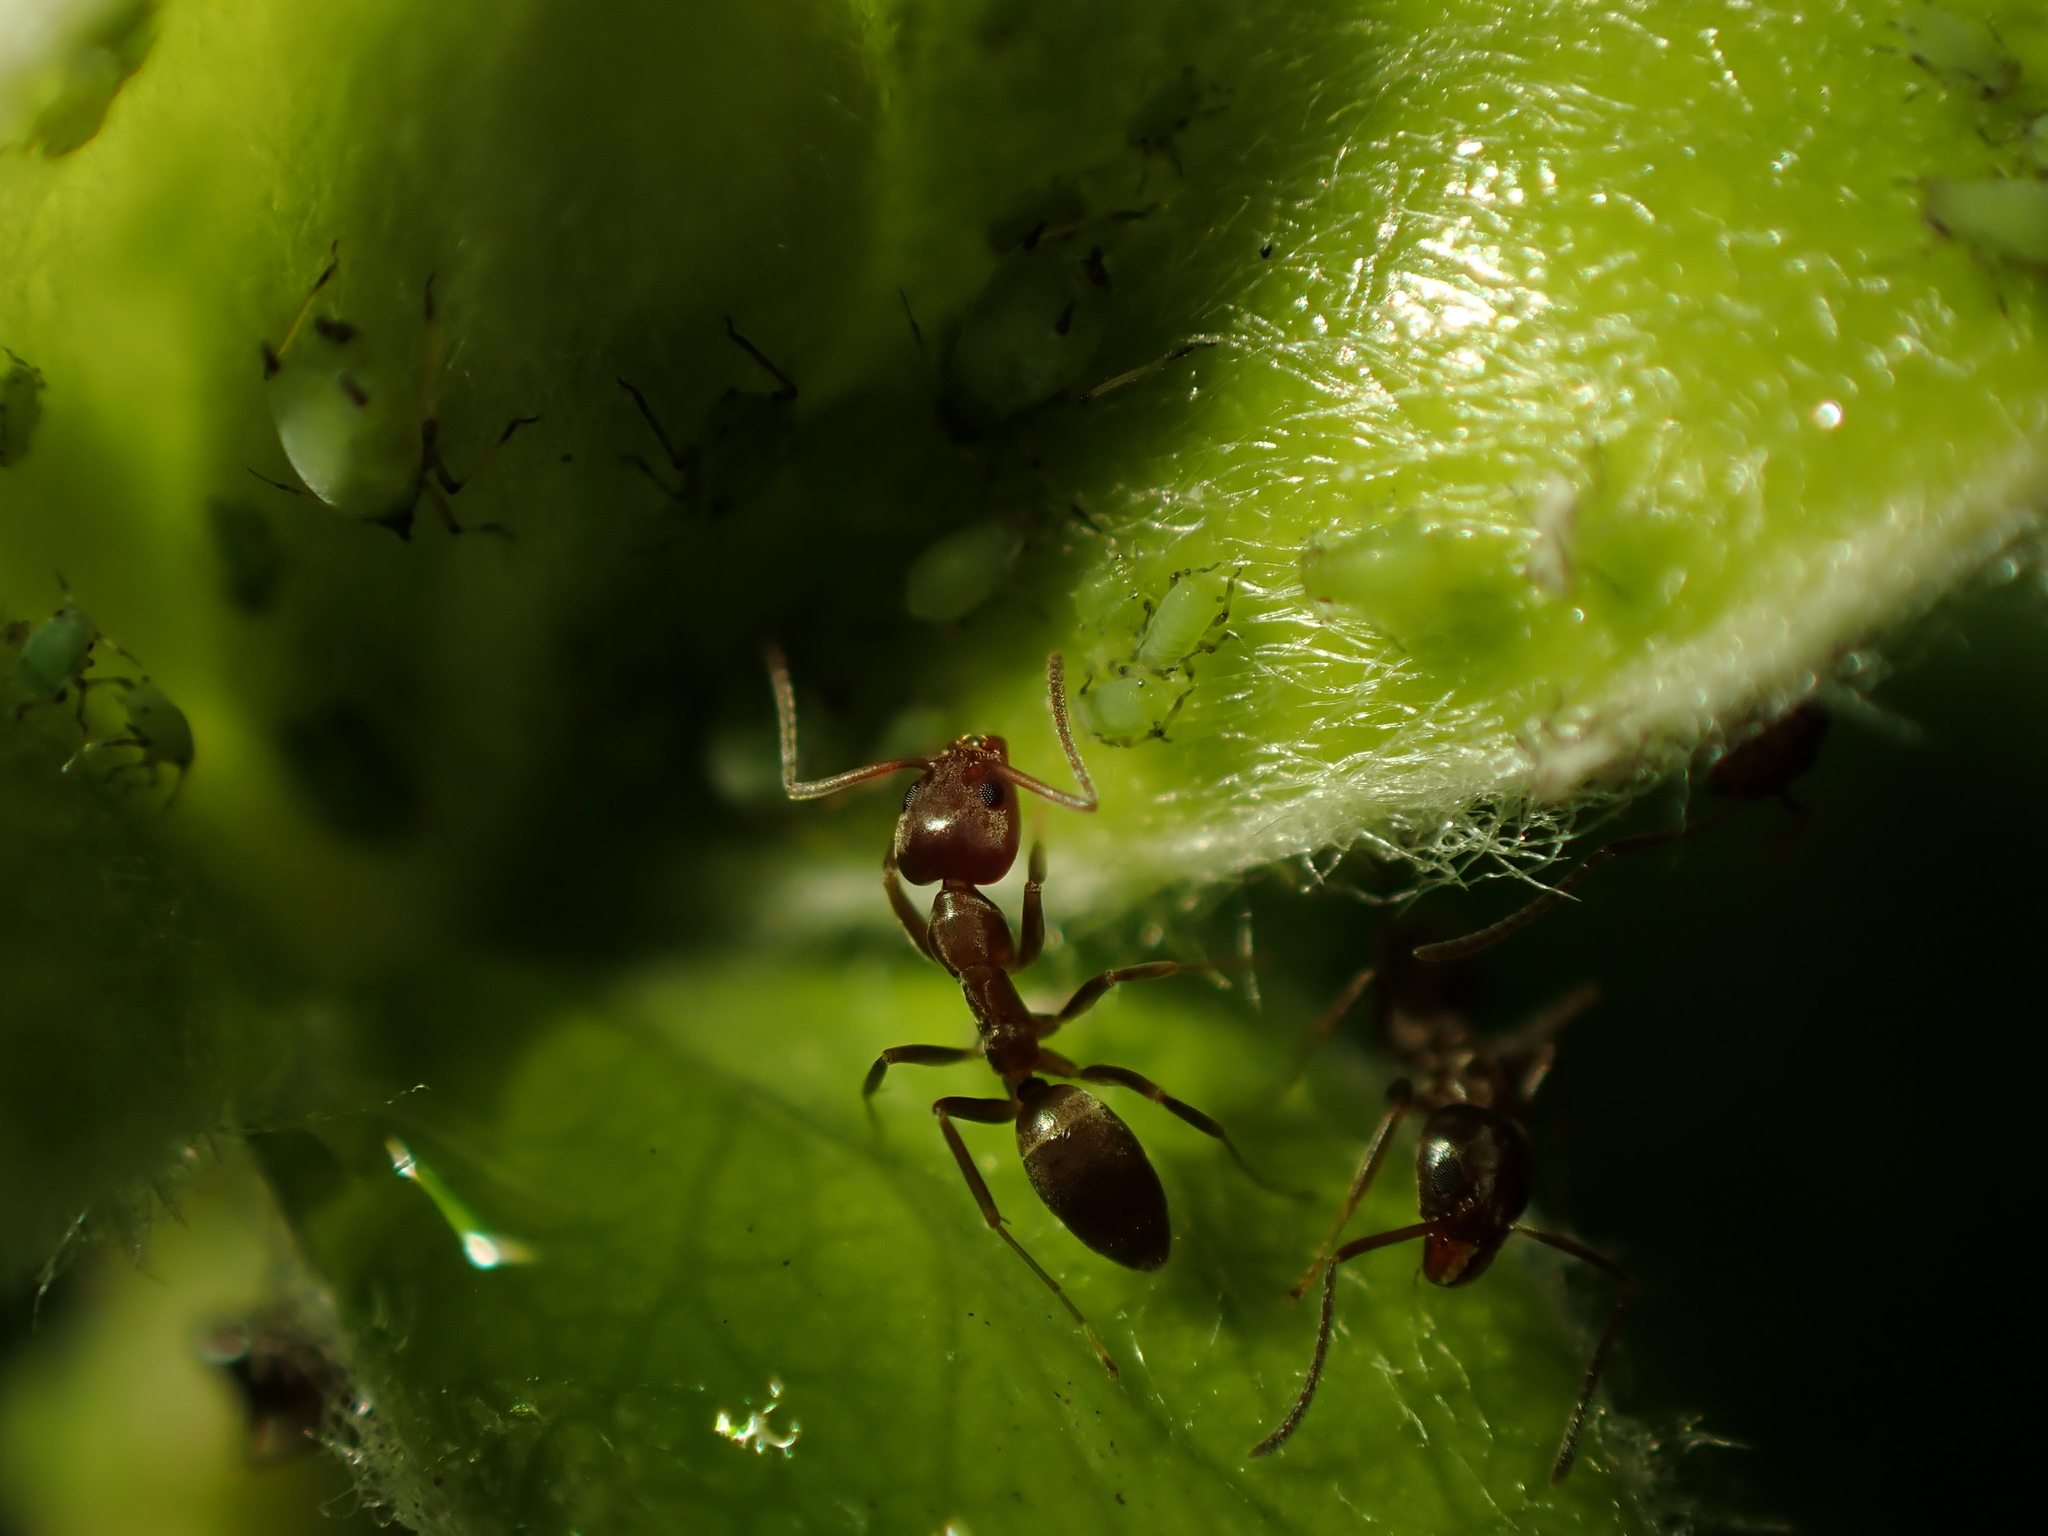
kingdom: Animalia
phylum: Arthropoda
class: Insecta
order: Hymenoptera
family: Formicidae
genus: Linepithema
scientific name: Linepithema humile
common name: Argentine ant
